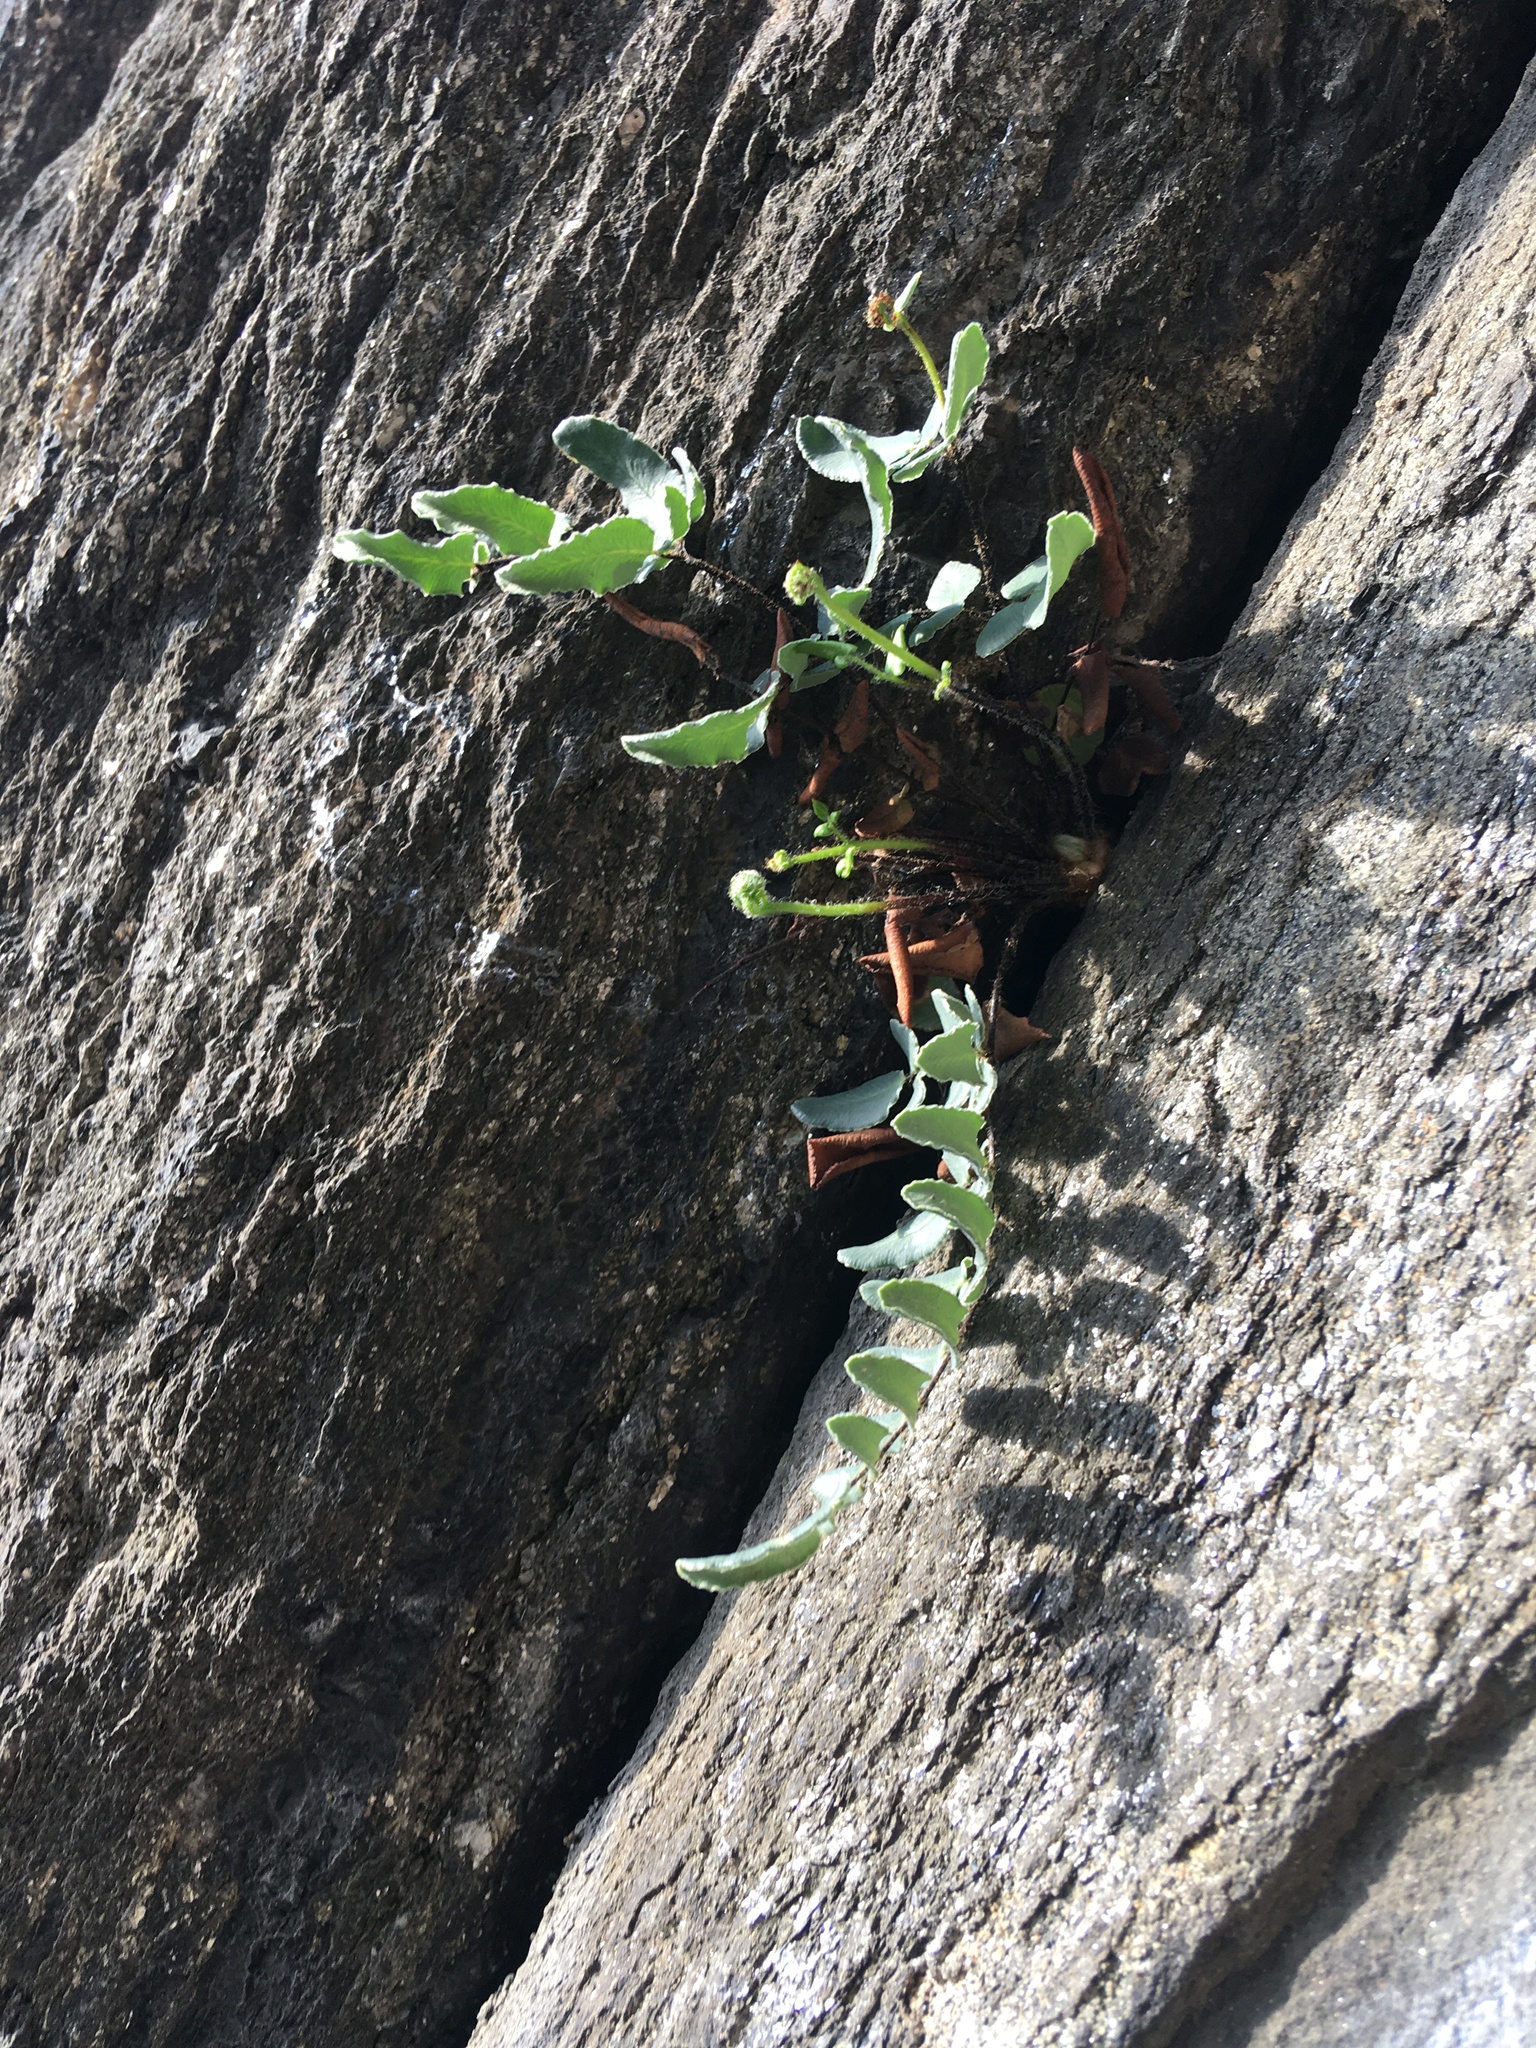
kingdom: Plantae
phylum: Tracheophyta
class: Polypodiopsida
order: Polypodiales
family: Pteridaceae
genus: Pellaea
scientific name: Pellaea atropurpurea
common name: Hairy cliffbrake
